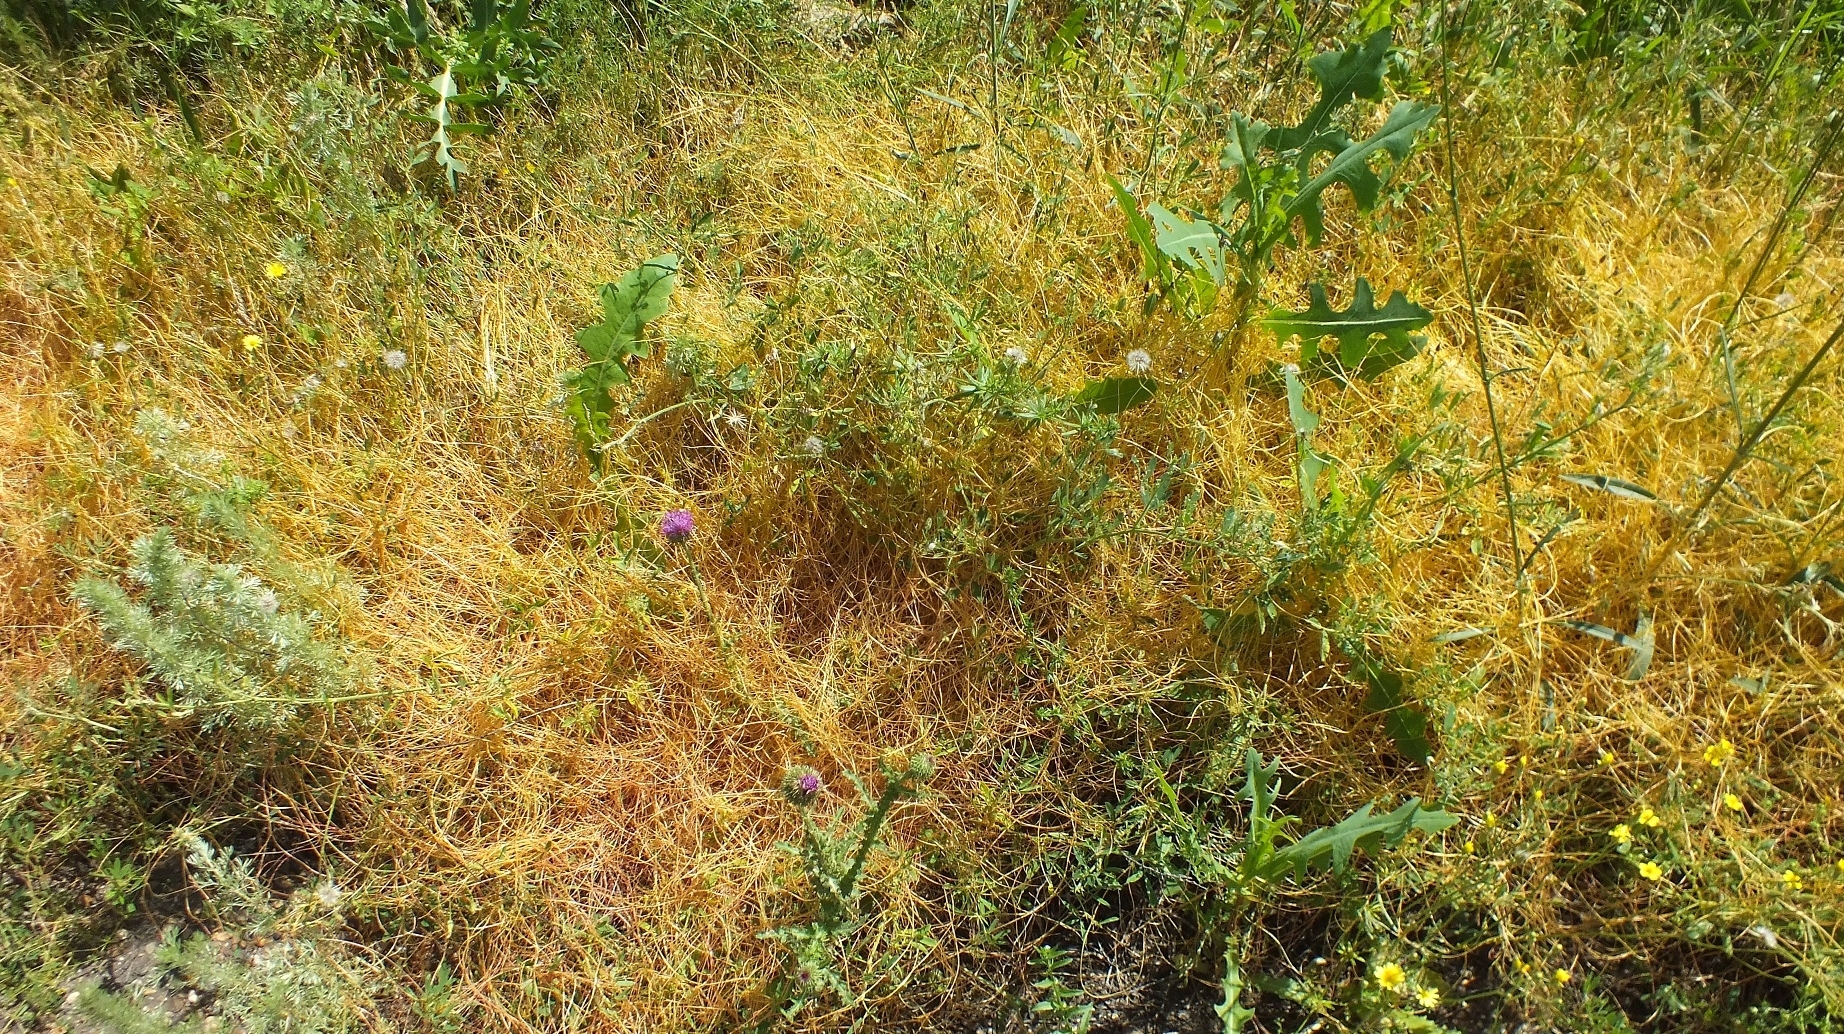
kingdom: Plantae
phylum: Tracheophyta
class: Magnoliopsida
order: Solanales
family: Convolvulaceae
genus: Cuscuta
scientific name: Cuscuta campestris
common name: Yellow dodder
